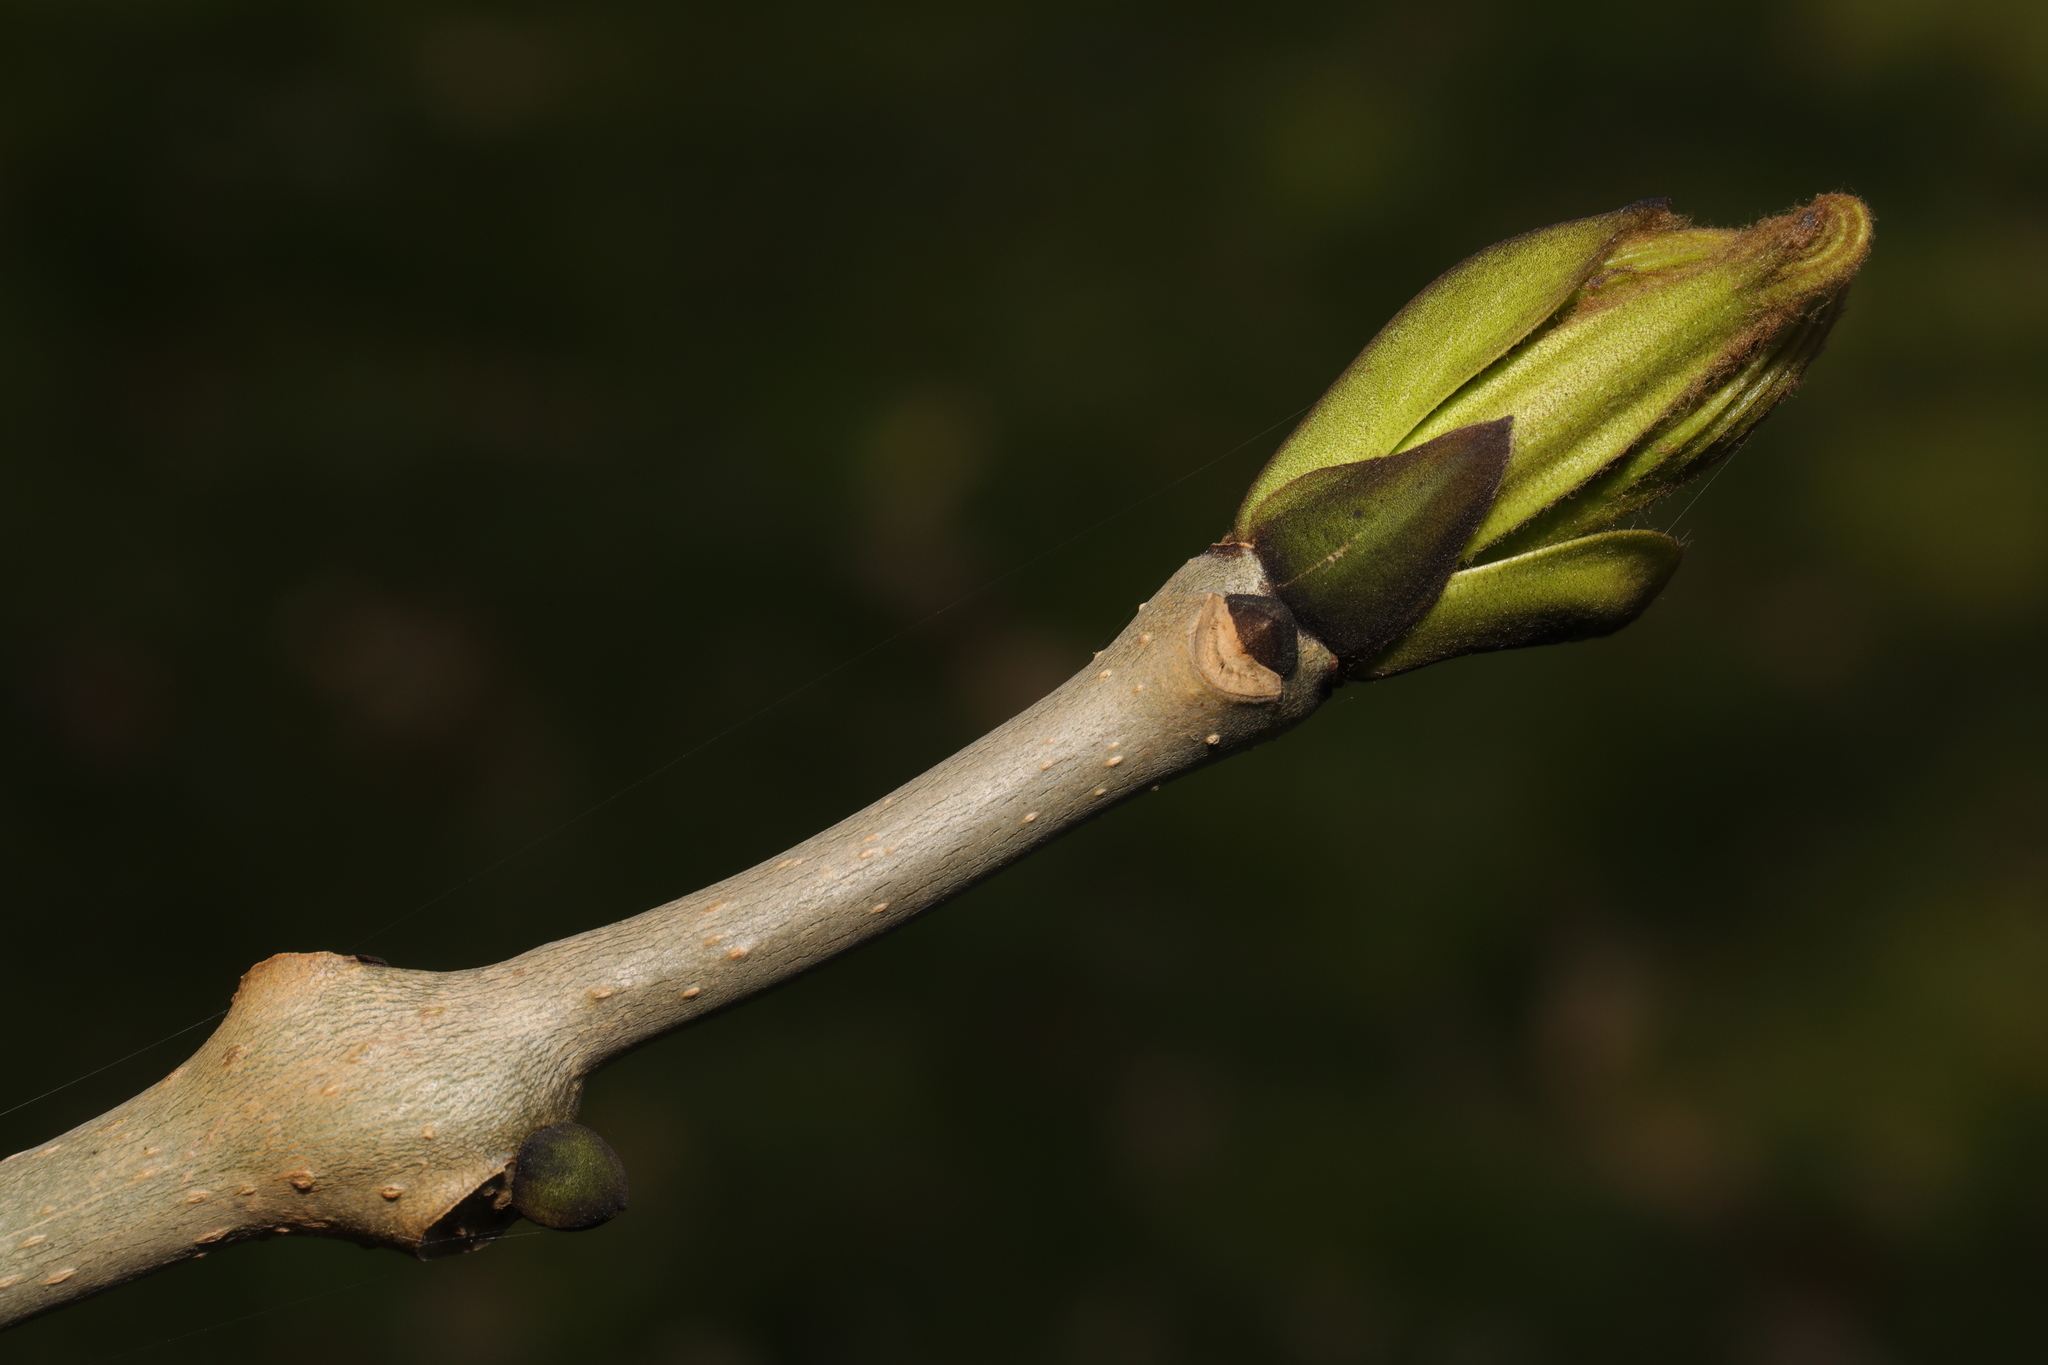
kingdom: Plantae
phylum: Tracheophyta
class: Magnoliopsida
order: Lamiales
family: Oleaceae
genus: Fraxinus
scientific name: Fraxinus excelsior
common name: European ash
